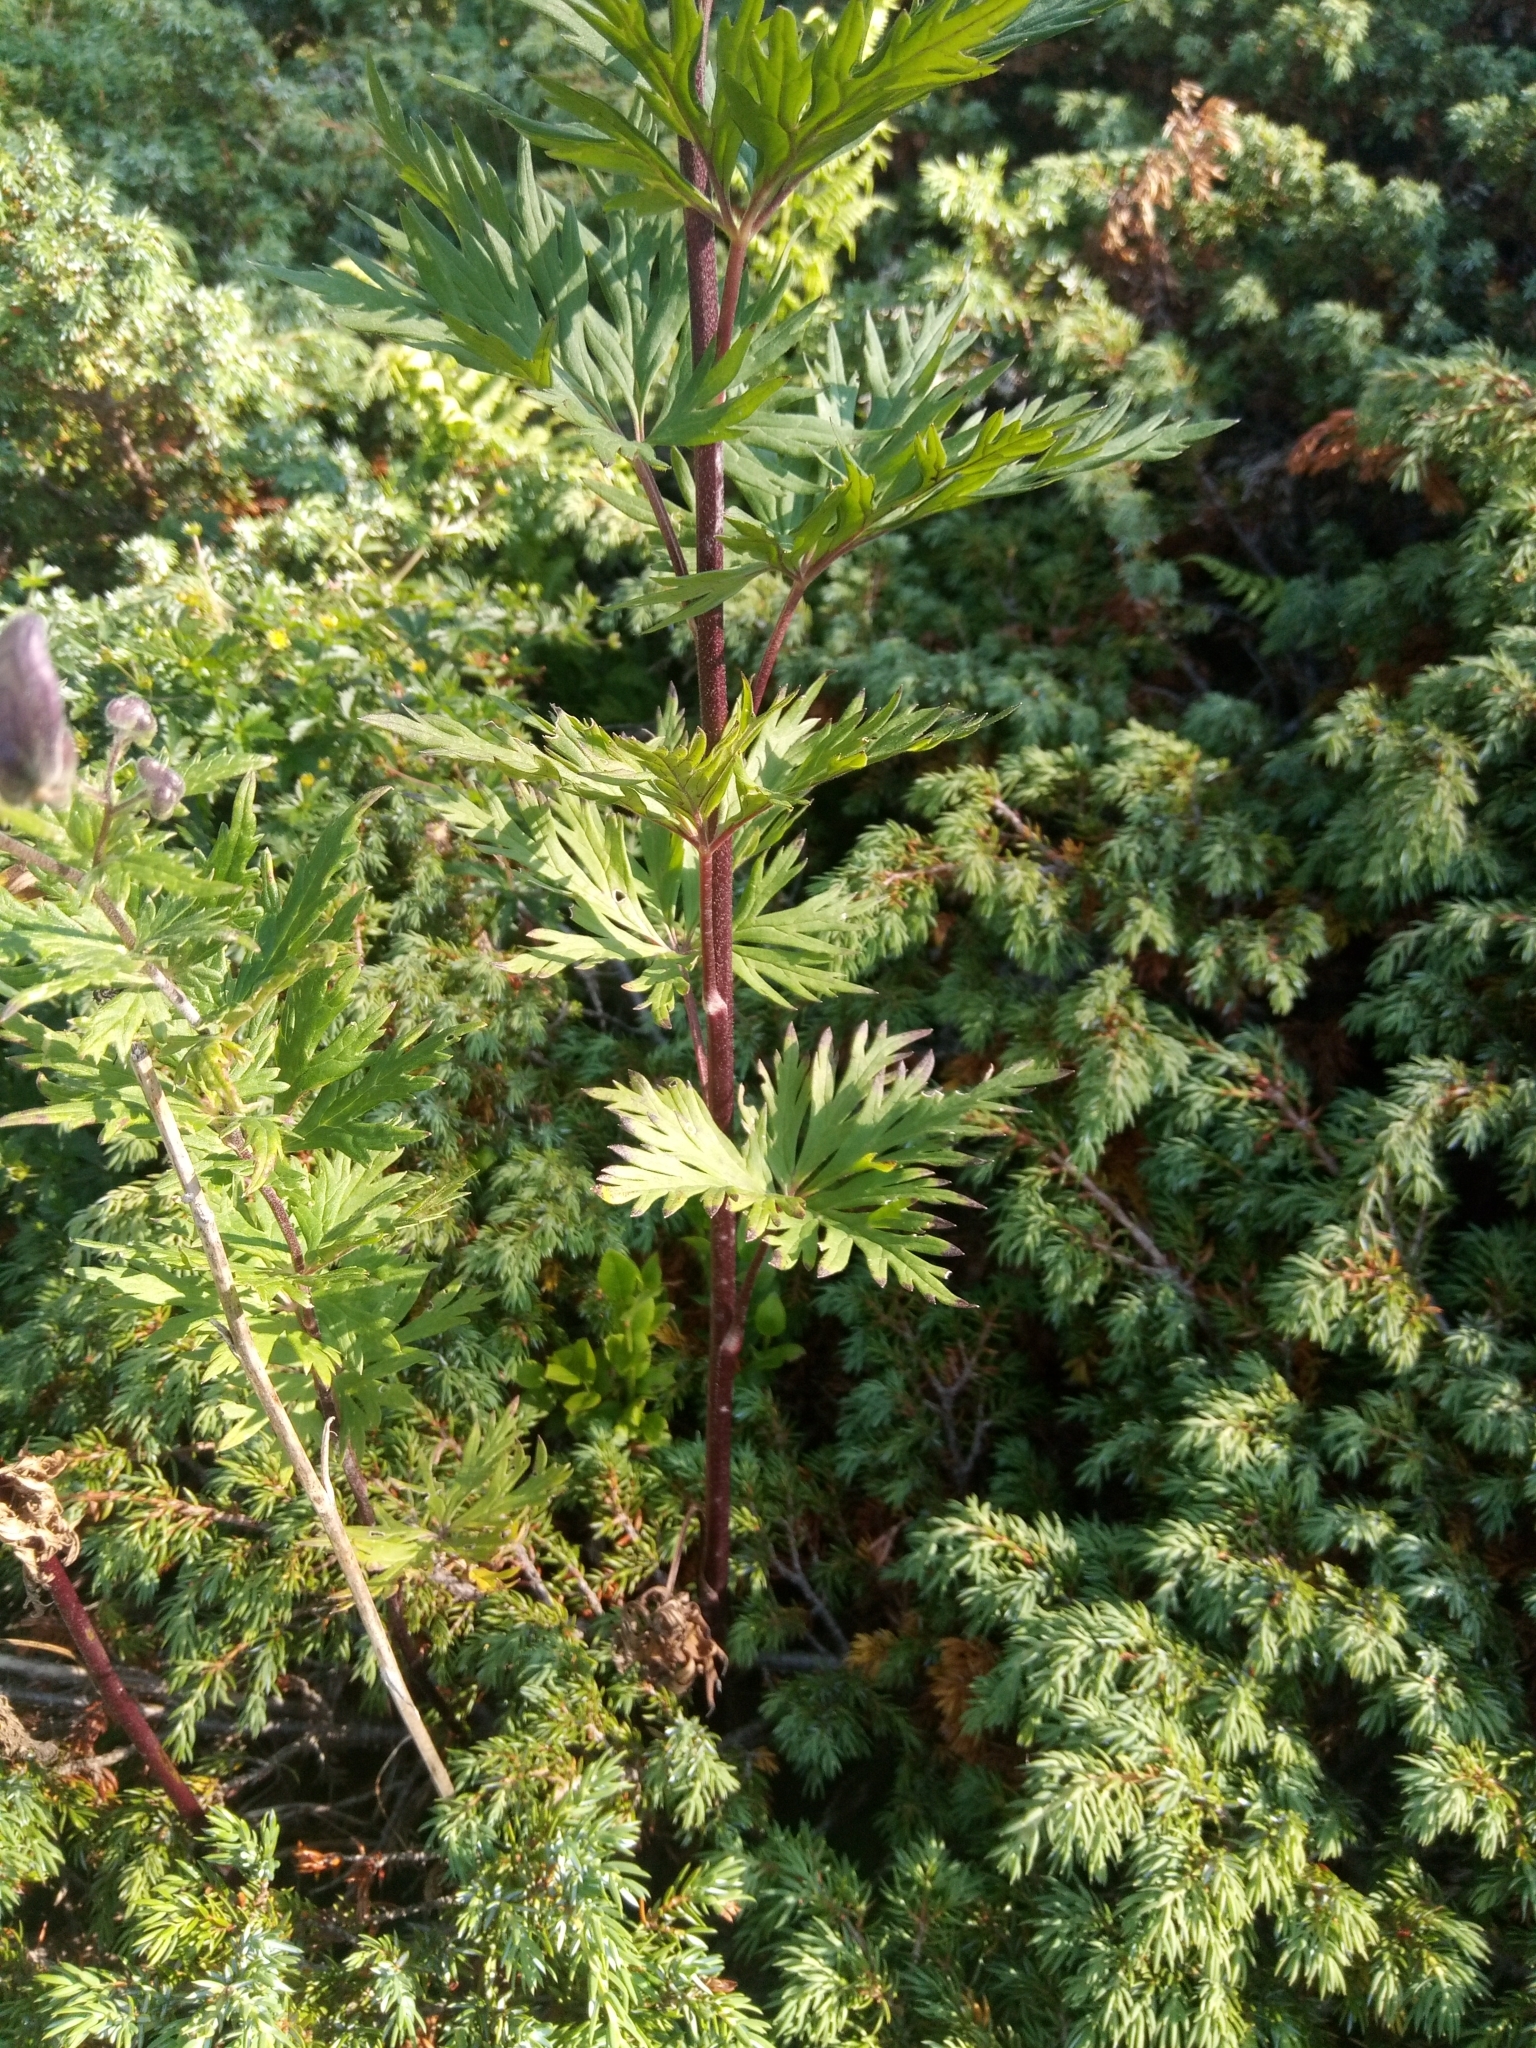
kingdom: Plantae
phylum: Tracheophyta
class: Magnoliopsida
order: Ranunculales
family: Ranunculaceae
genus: Aconitum
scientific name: Aconitum variegatum
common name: Manchurian monkshood
